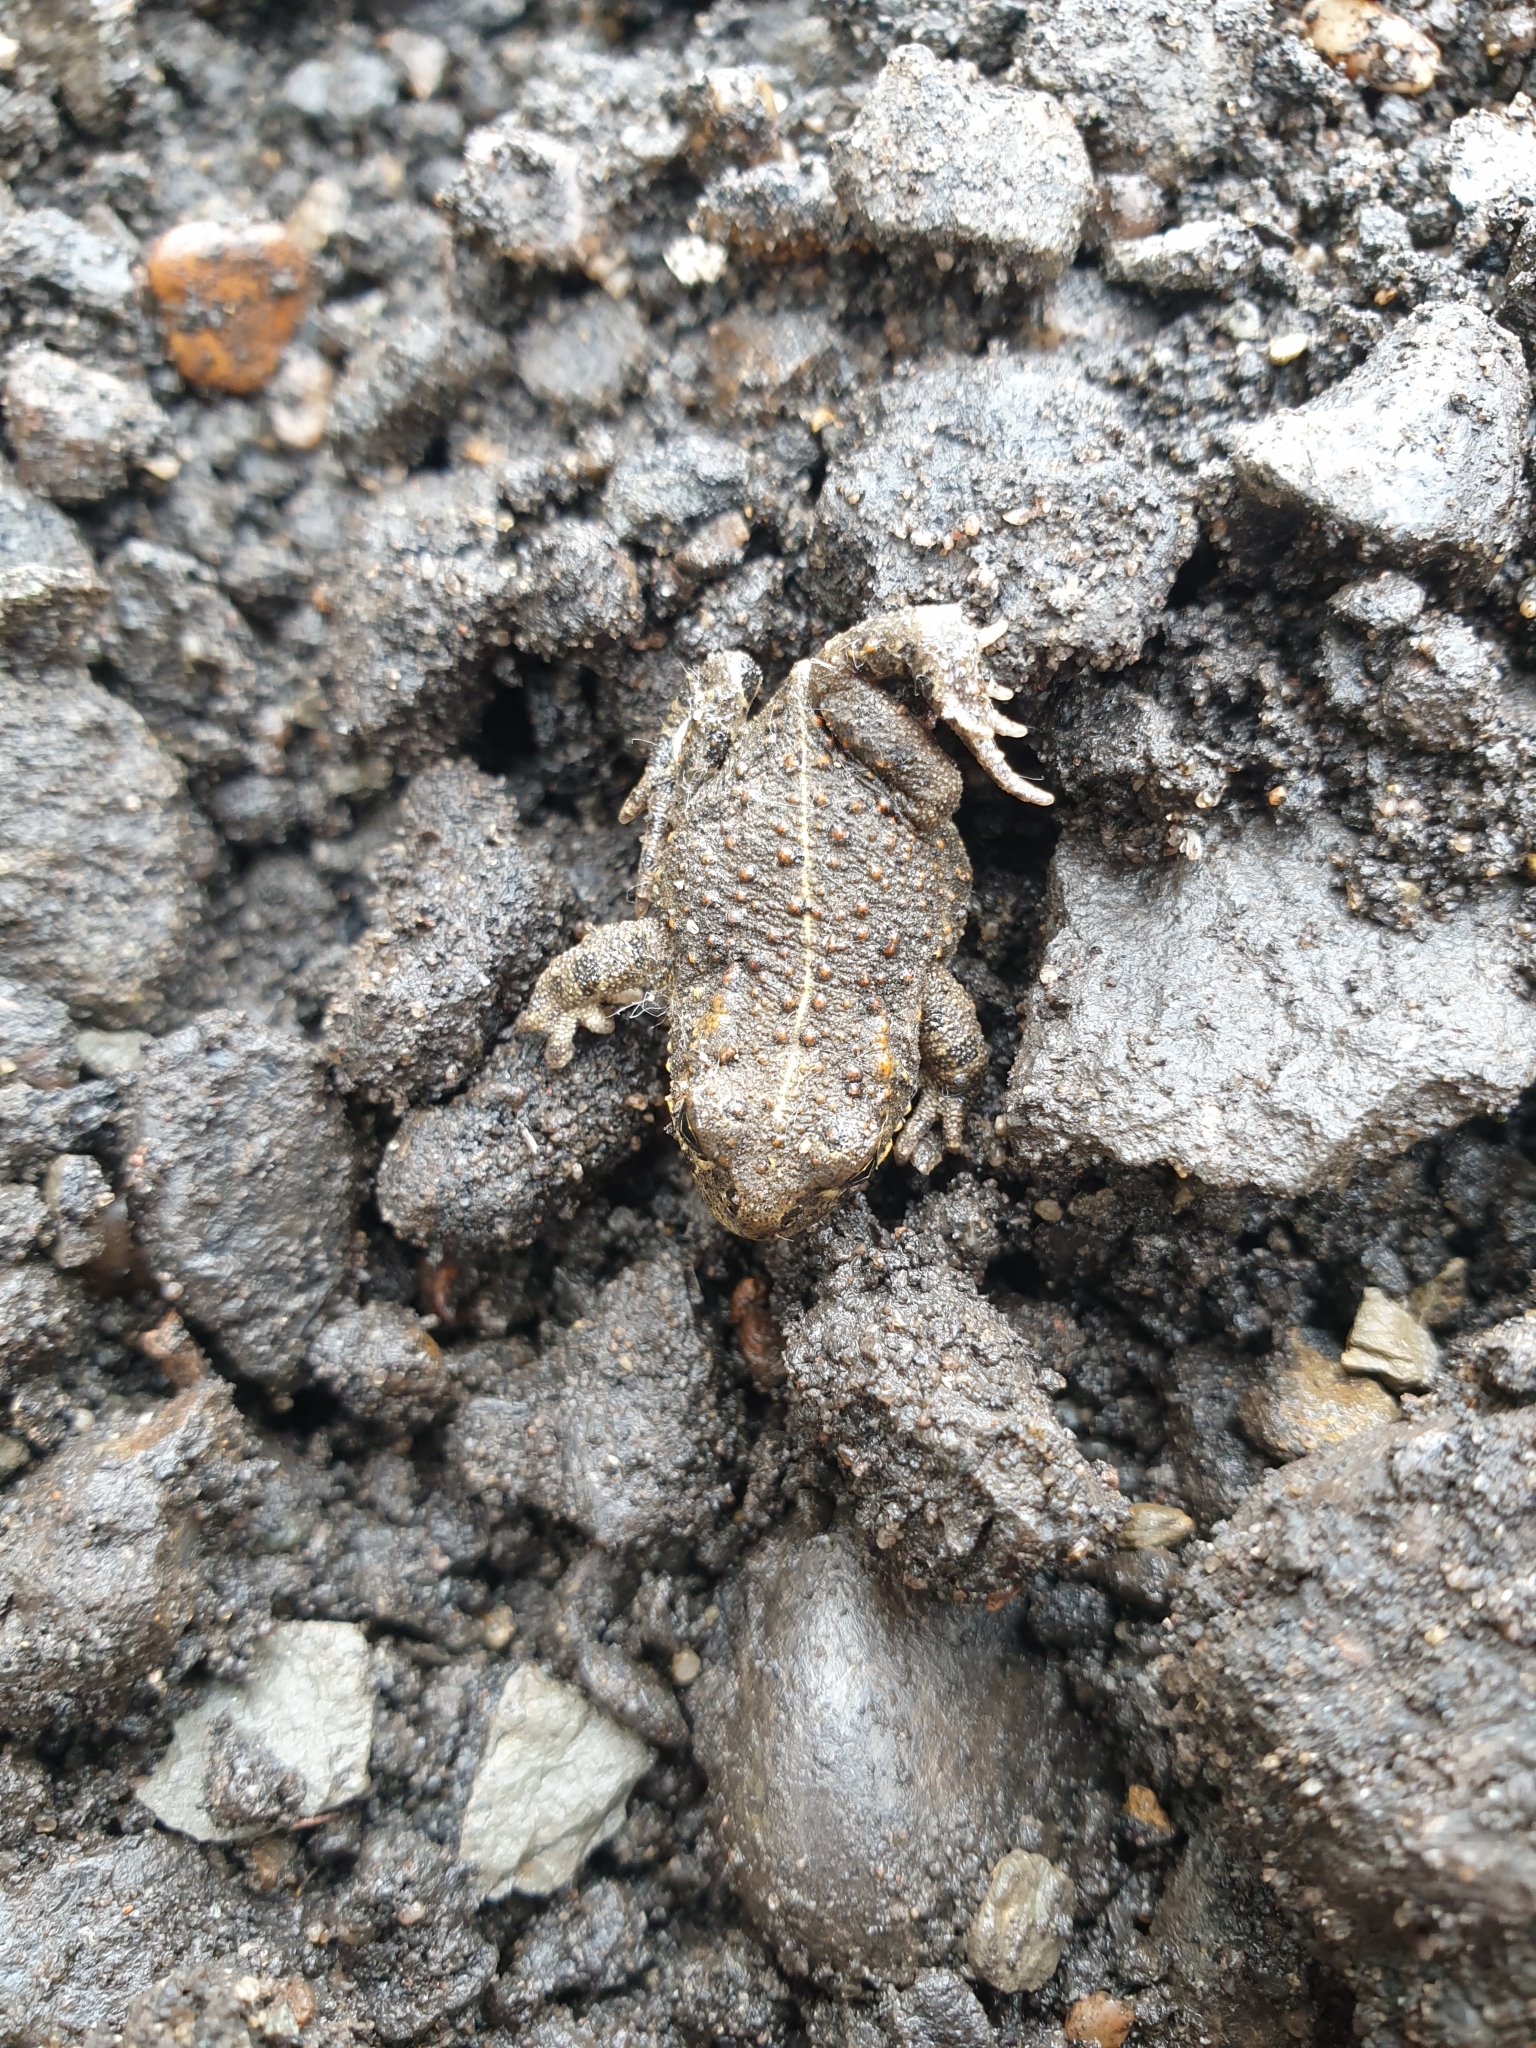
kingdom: Animalia
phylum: Chordata
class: Amphibia
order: Anura
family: Bufonidae
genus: Epidalea
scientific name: Epidalea calamita
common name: Natterjack toad
